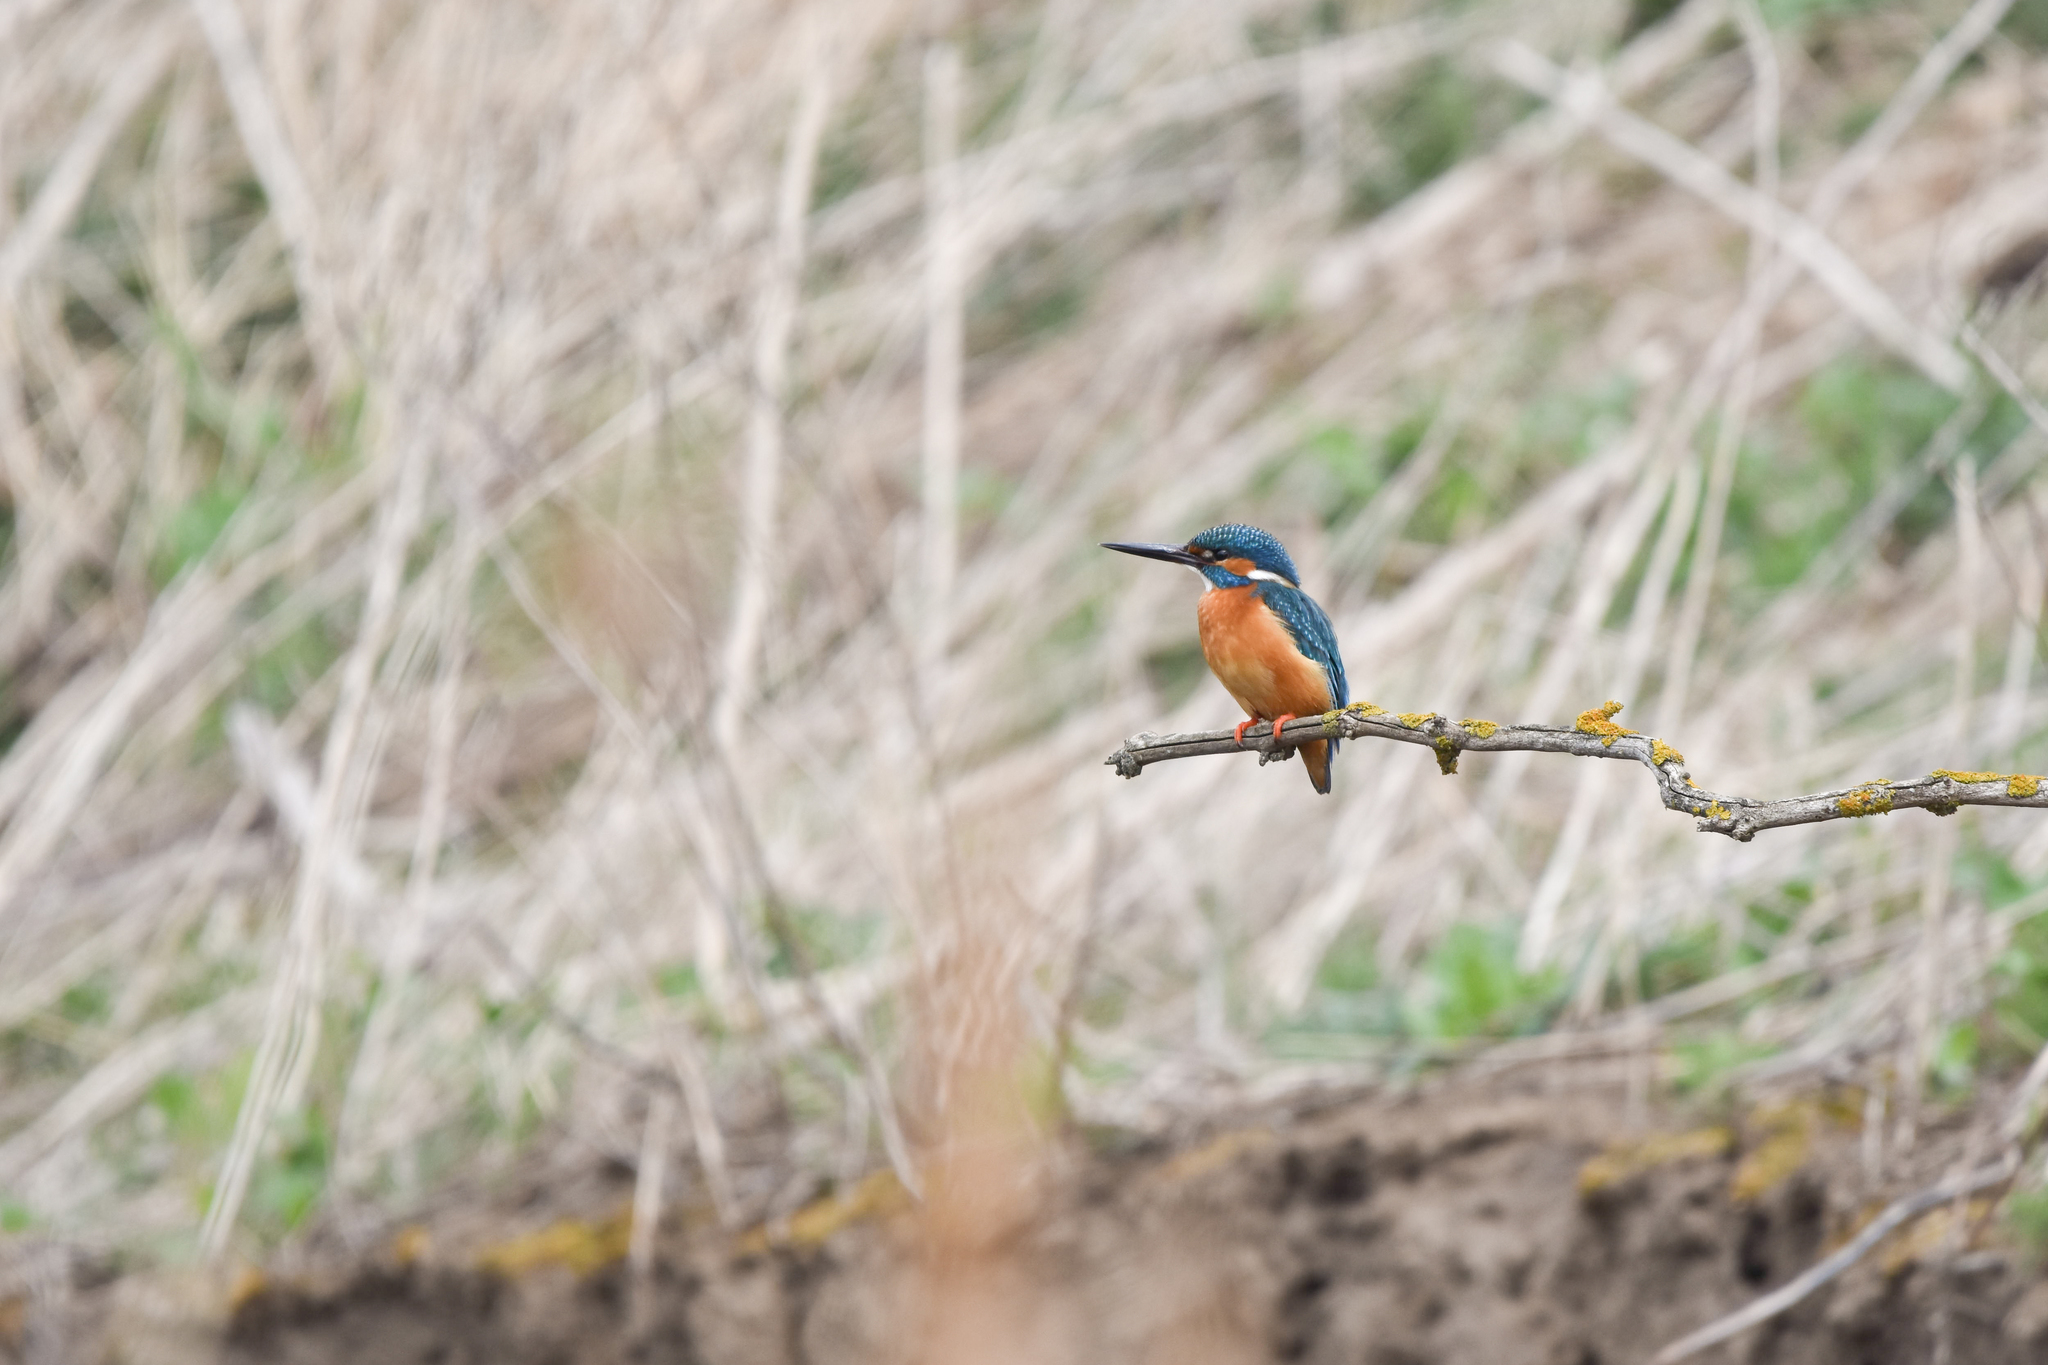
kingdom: Animalia
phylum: Chordata
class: Aves
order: Coraciiformes
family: Alcedinidae
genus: Alcedo
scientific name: Alcedo atthis
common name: Common kingfisher
